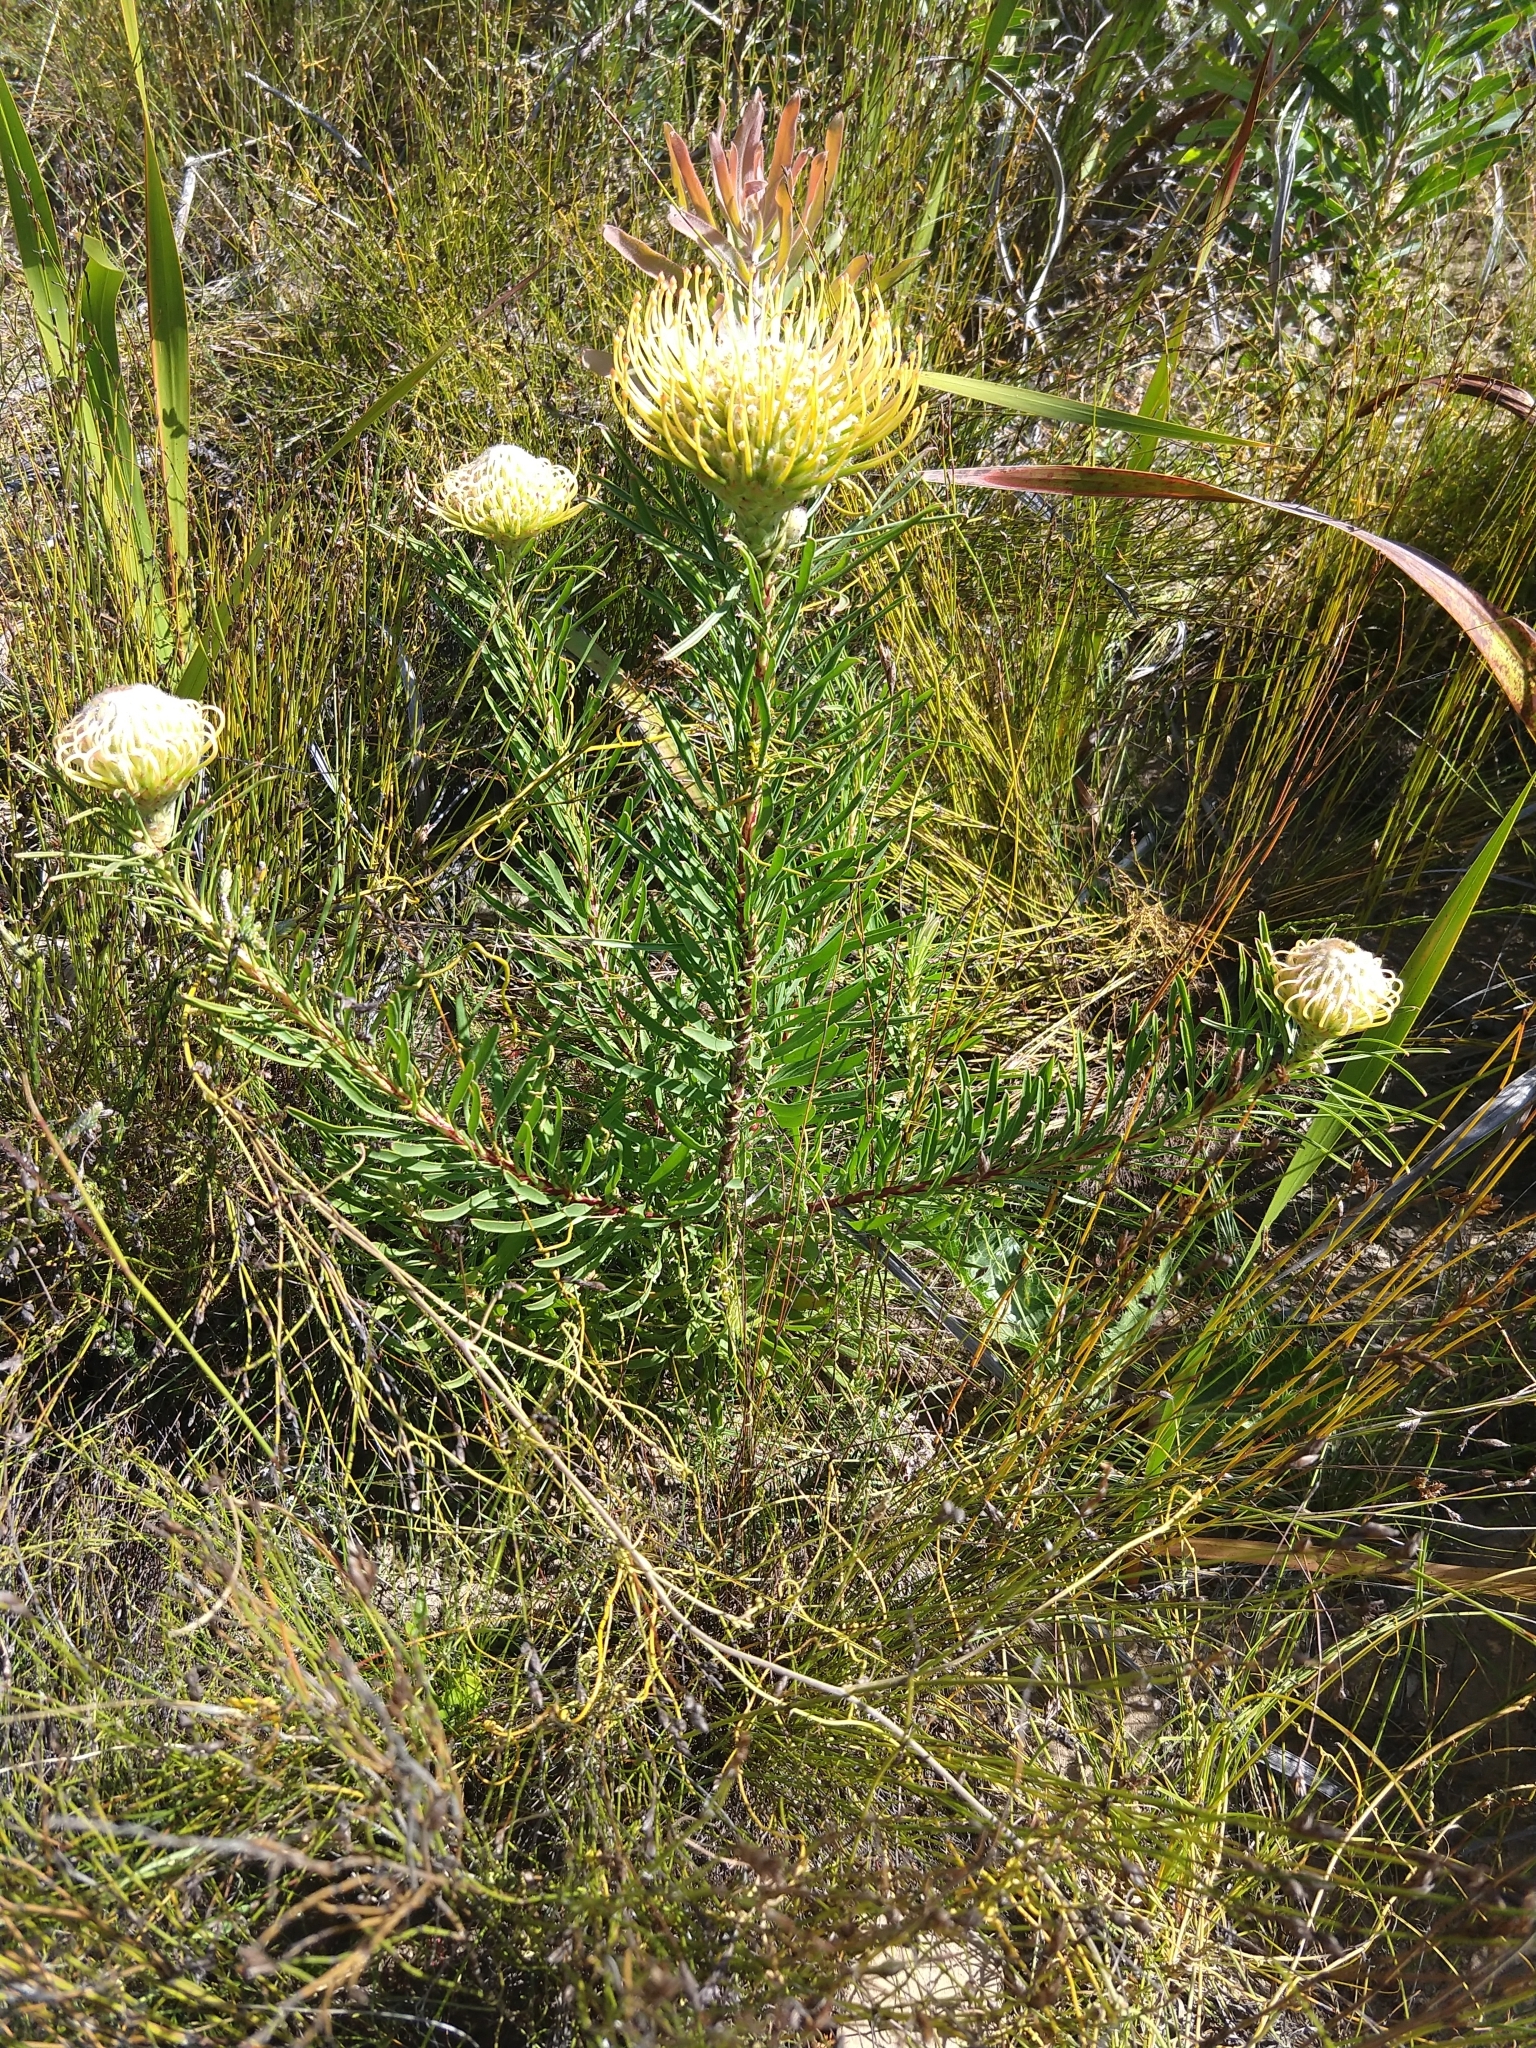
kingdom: Plantae
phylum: Tracheophyta
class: Magnoliopsida
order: Proteales
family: Proteaceae
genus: Leucospermum
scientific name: Leucospermum lineare
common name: Needle-leaf pincushion
